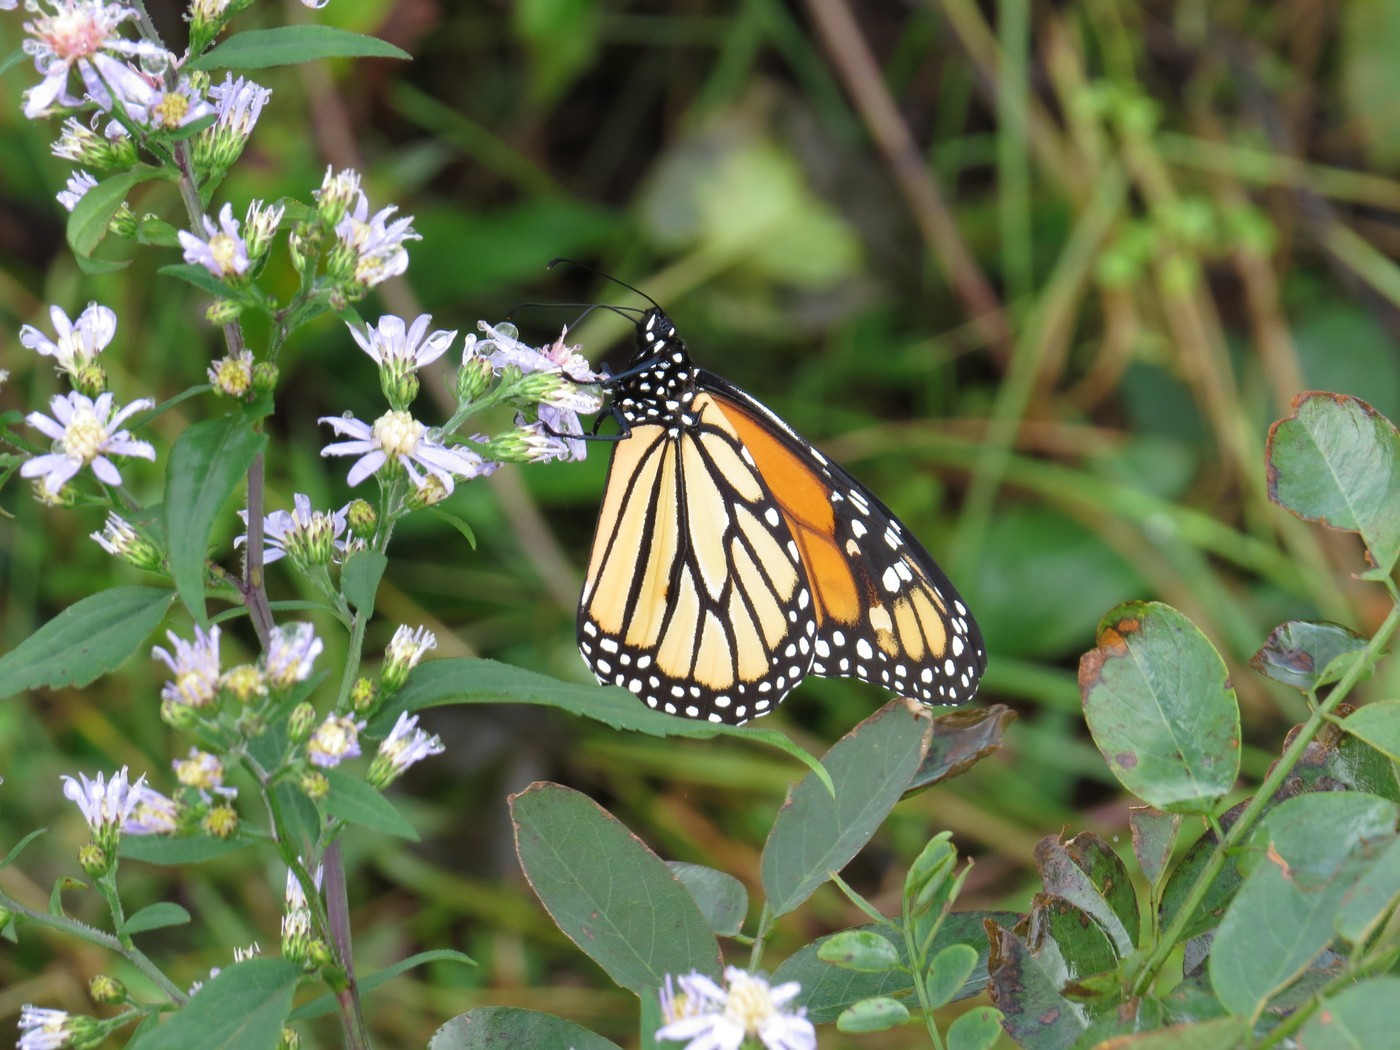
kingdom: Animalia
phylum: Arthropoda
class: Insecta
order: Lepidoptera
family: Nymphalidae
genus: Danaus
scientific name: Danaus plexippus
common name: Monarch
